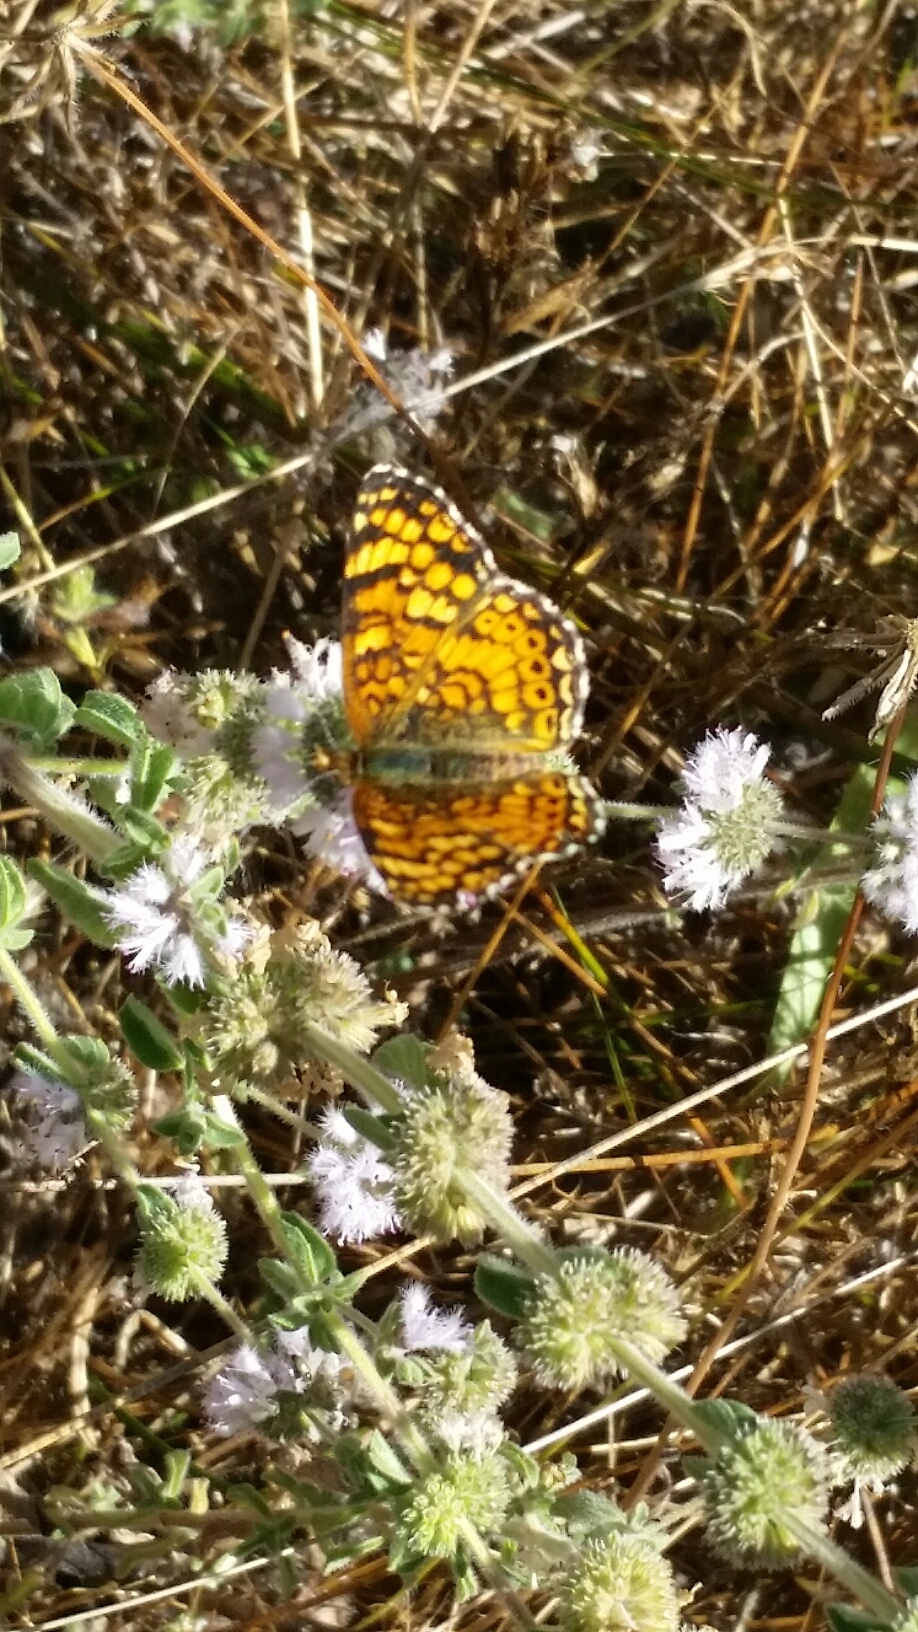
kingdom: Animalia
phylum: Arthropoda
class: Insecta
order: Lepidoptera
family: Nymphalidae
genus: Eresia
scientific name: Eresia aveyrona
